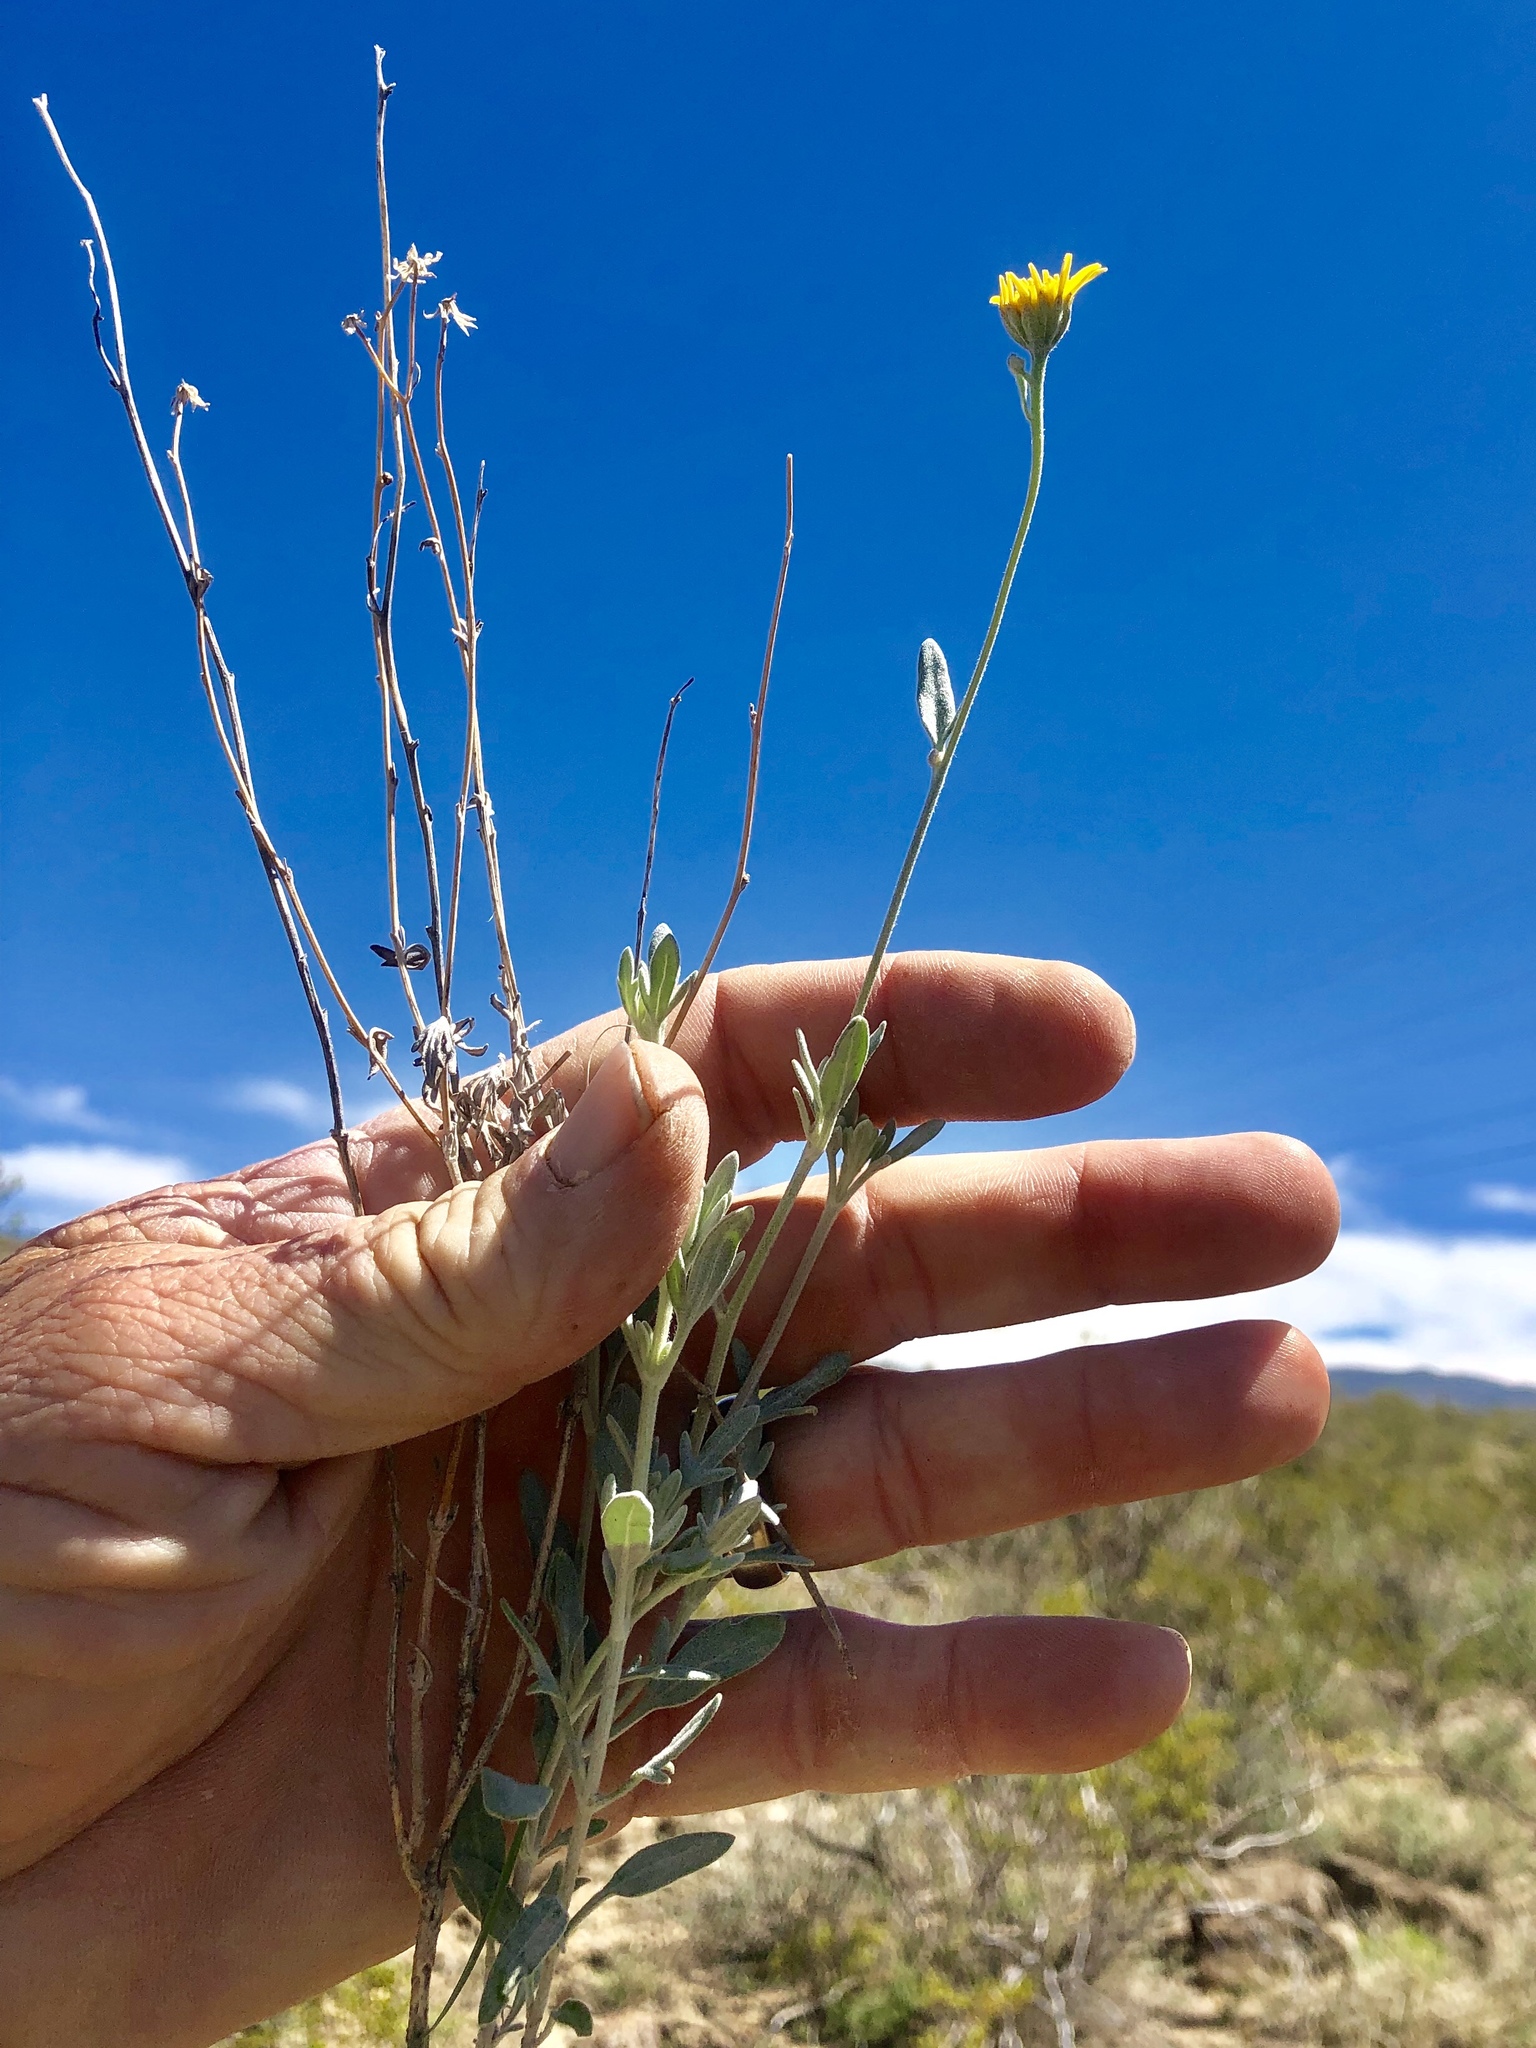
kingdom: Plantae
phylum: Tracheophyta
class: Magnoliopsida
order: Asterales
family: Asteraceae
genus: Picradeniopsis
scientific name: Picradeniopsis absinthifolia
